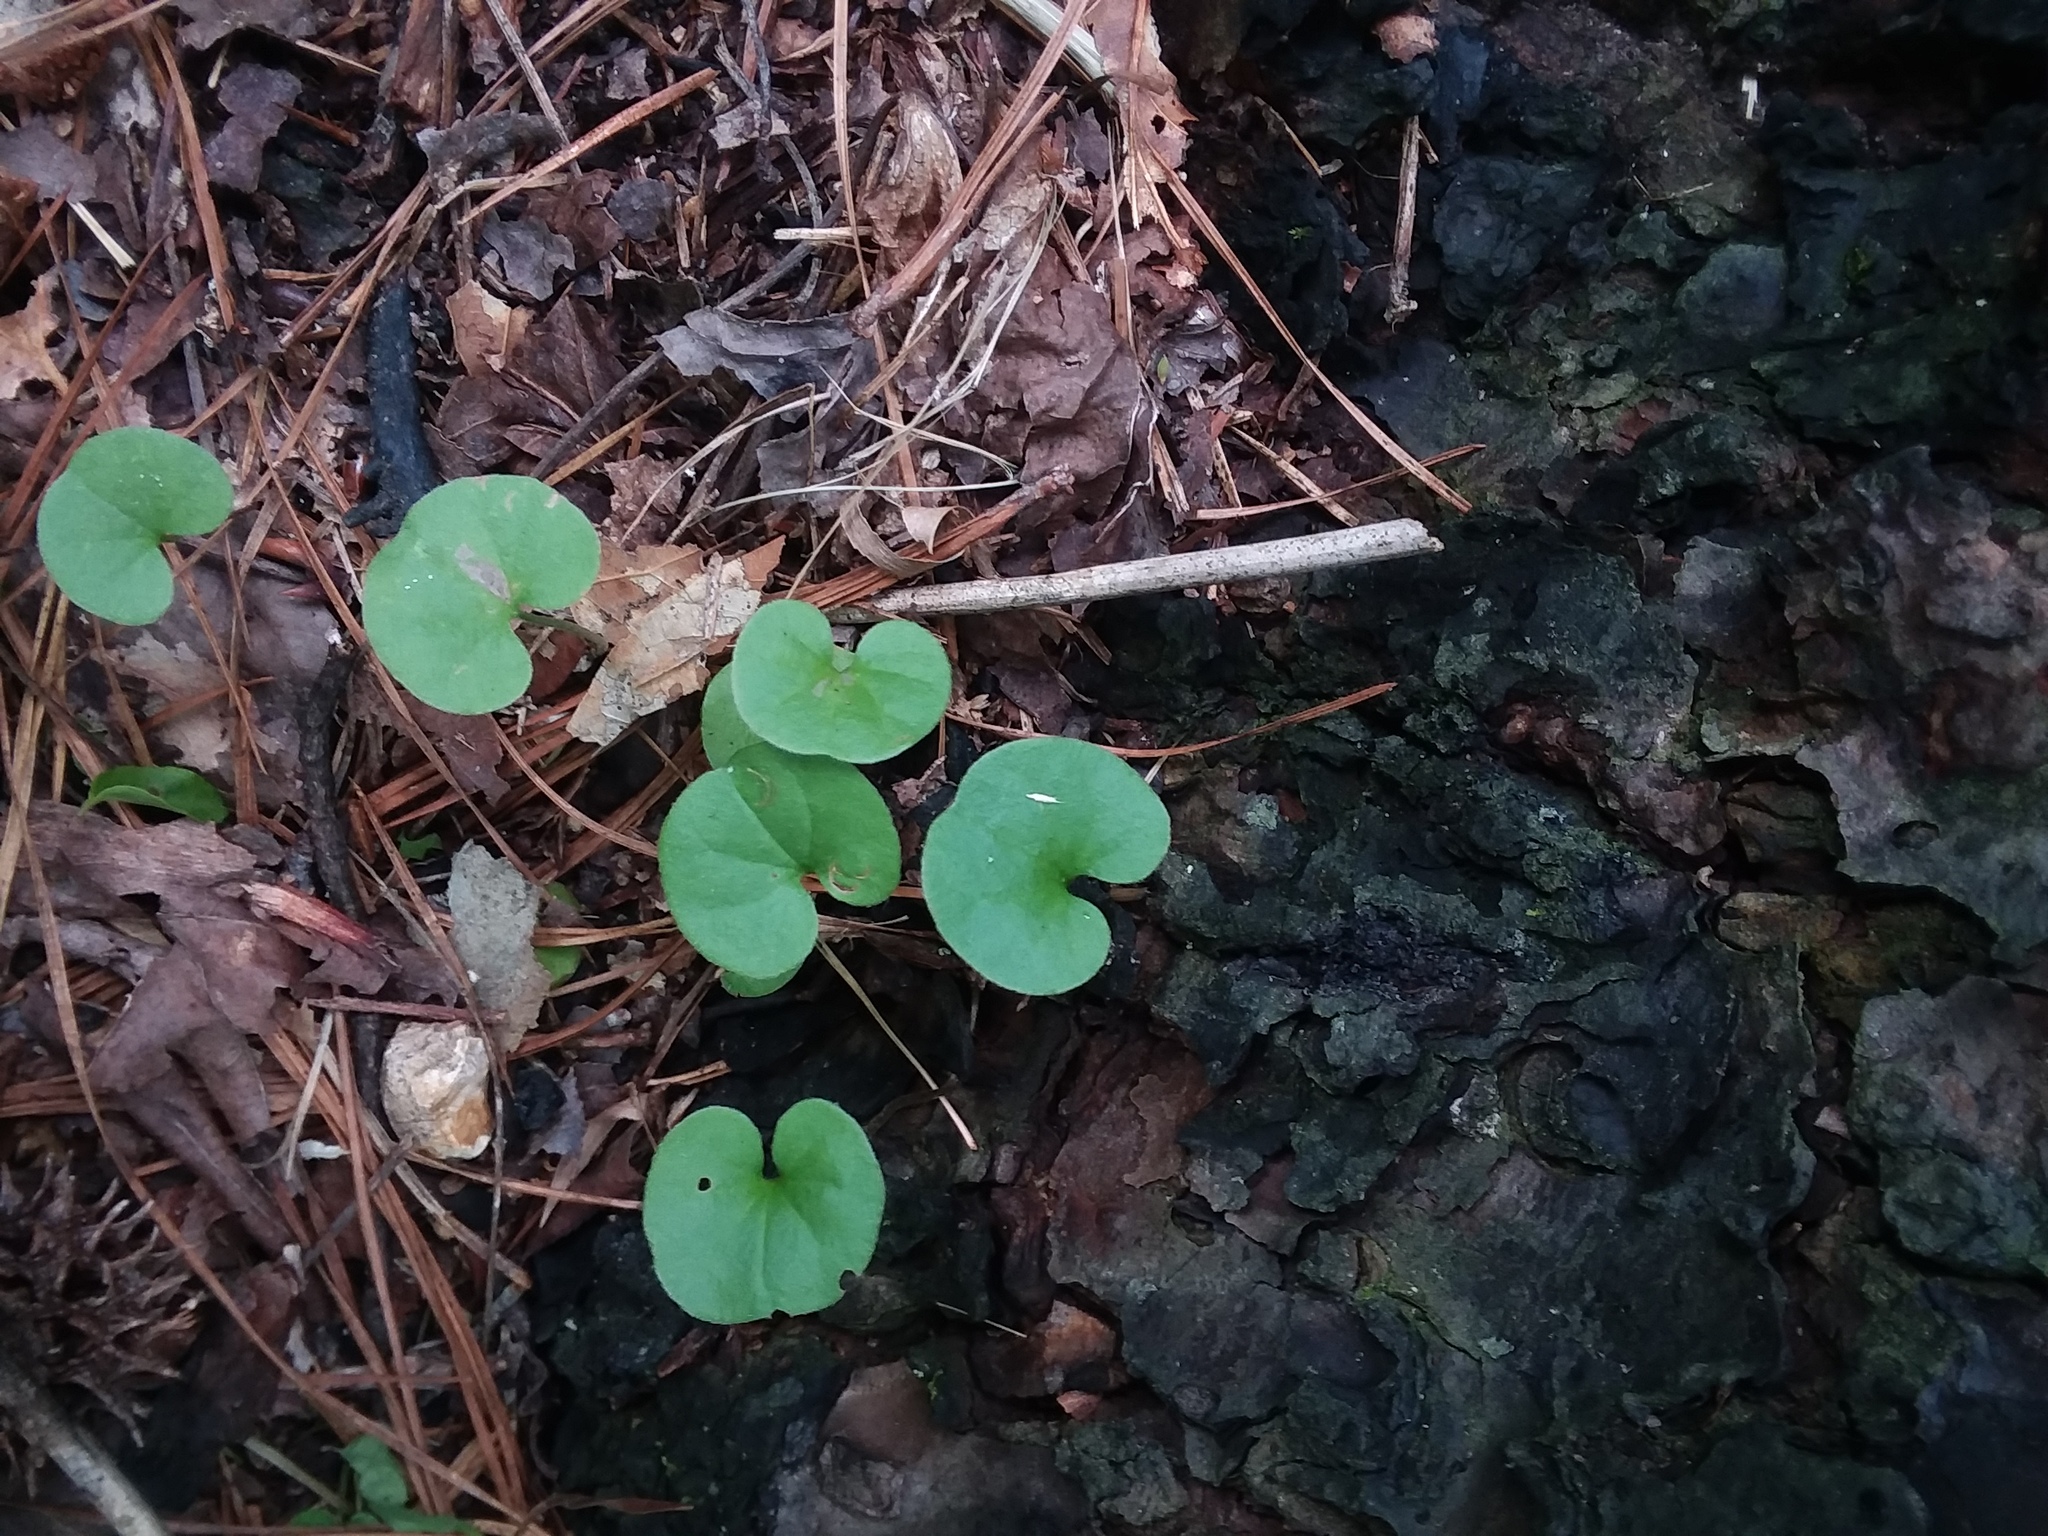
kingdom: Plantae
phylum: Tracheophyta
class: Magnoliopsida
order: Solanales
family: Convolvulaceae
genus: Dichondra
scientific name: Dichondra carolinensis
